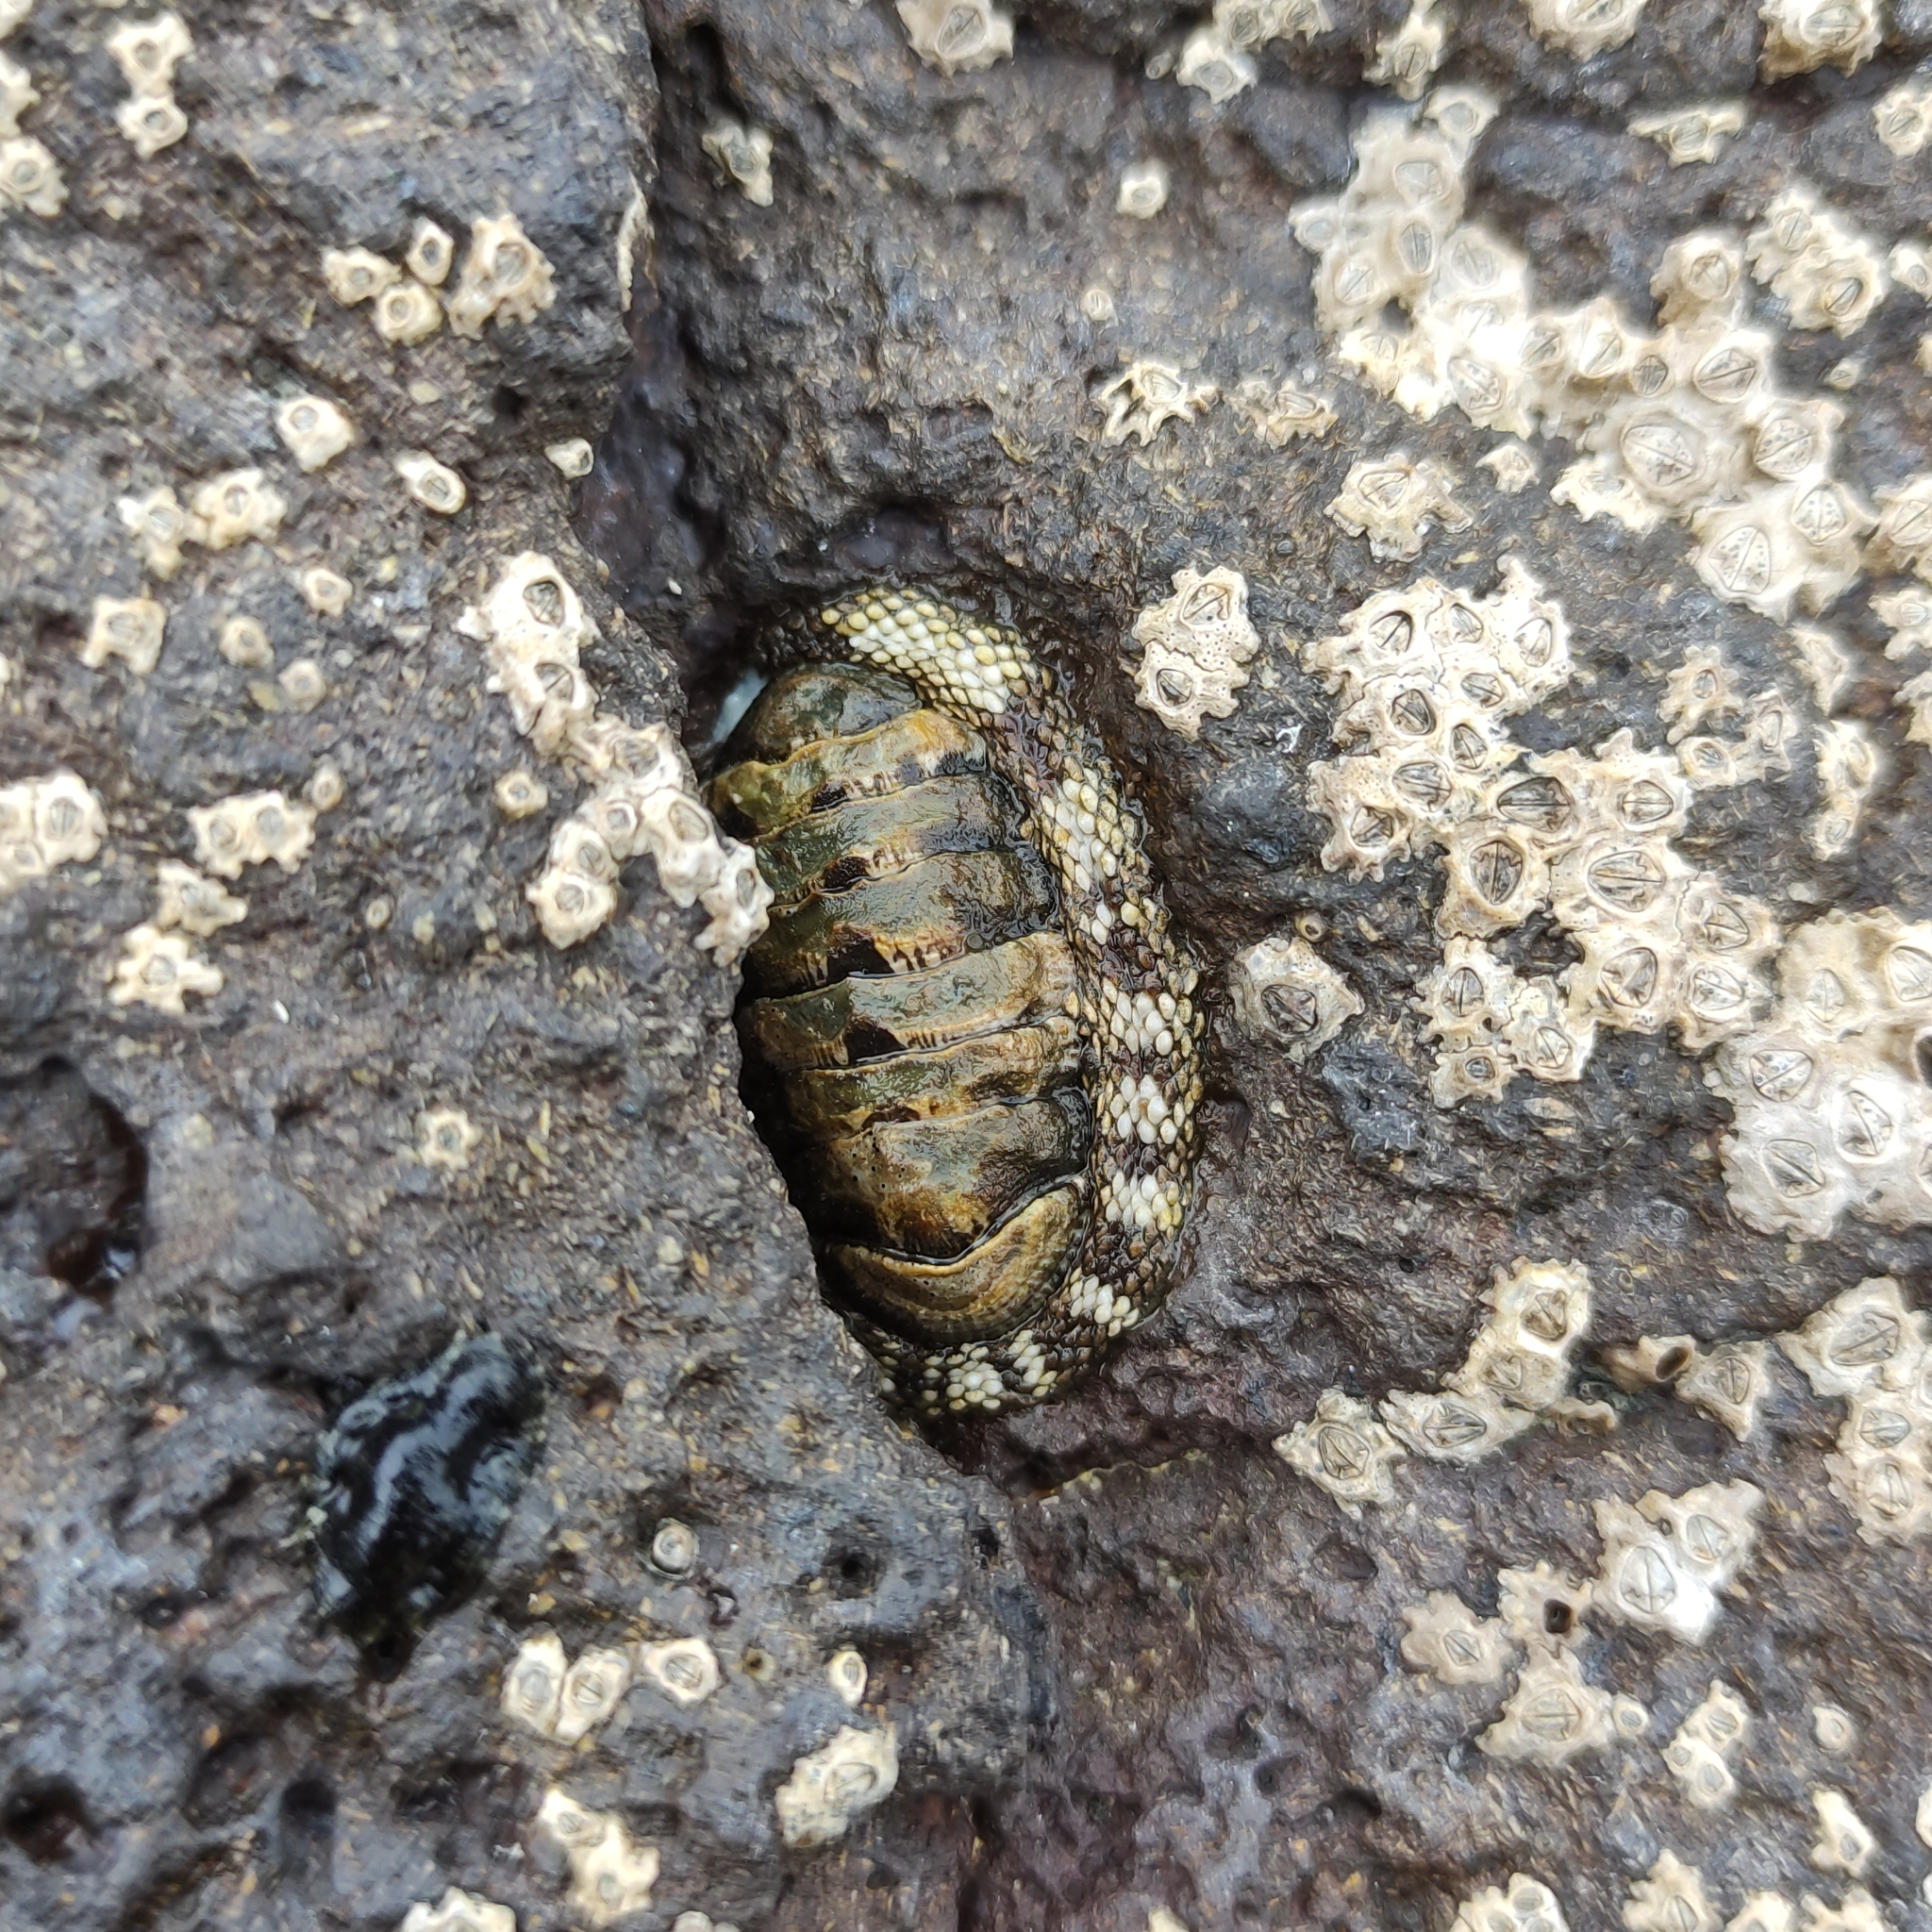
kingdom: Animalia
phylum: Mollusca
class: Polyplacophora
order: Chitonida
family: Chitonidae
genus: Sypharochiton
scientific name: Sypharochiton pelliserpentis
